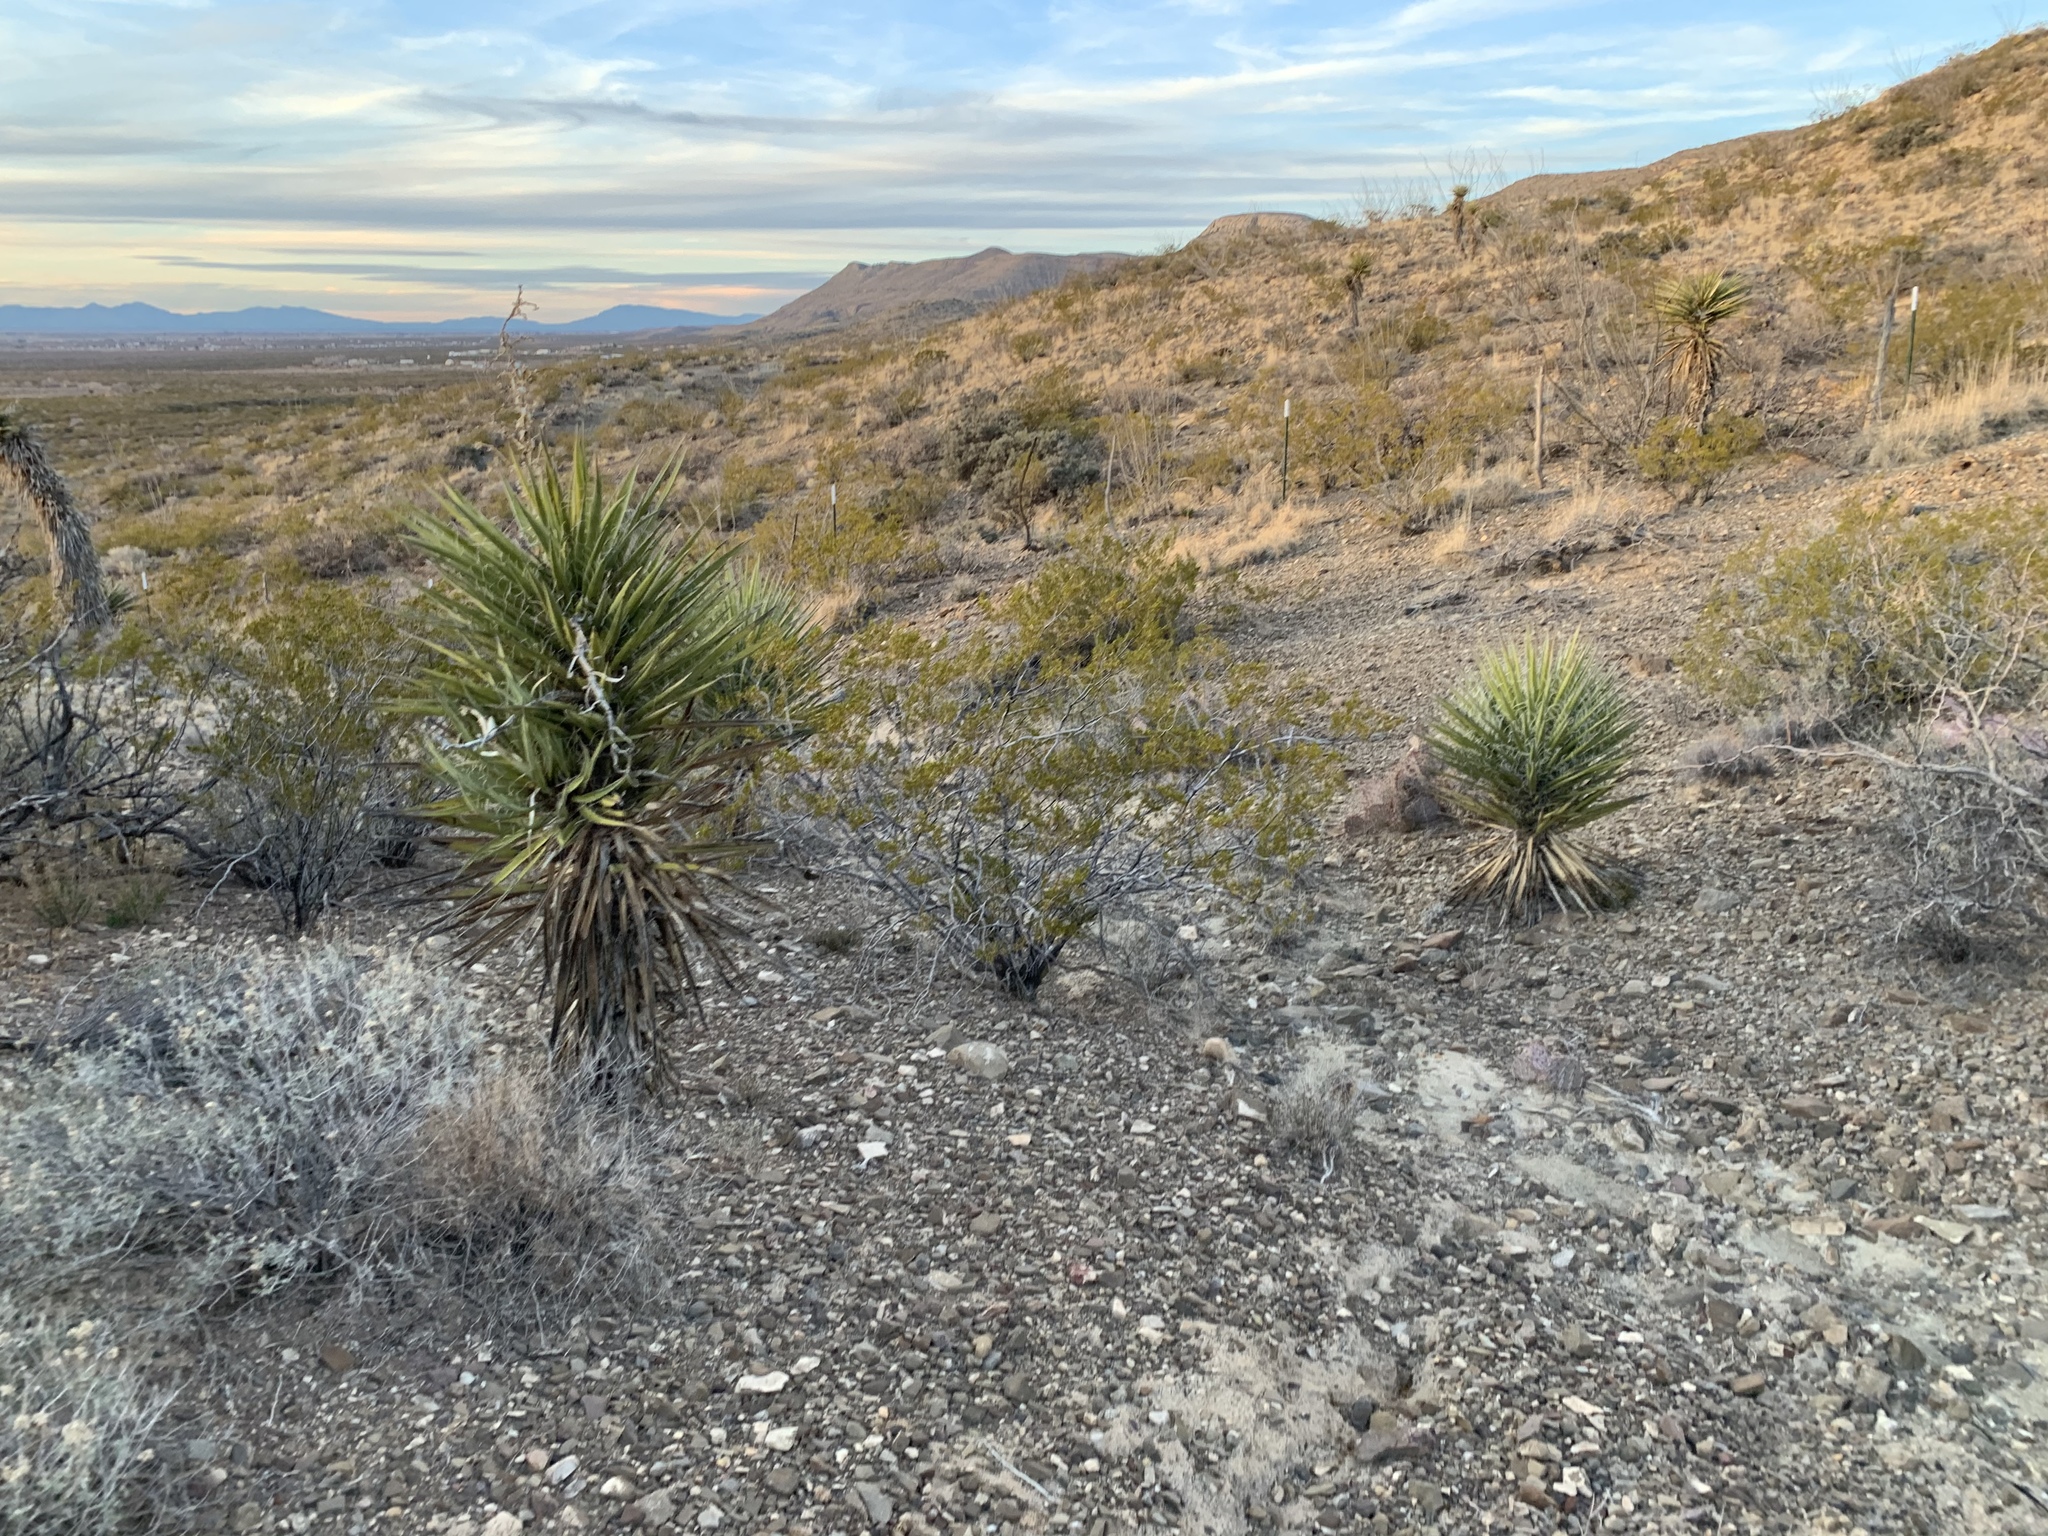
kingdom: Plantae
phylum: Tracheophyta
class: Liliopsida
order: Asparagales
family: Asparagaceae
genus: Yucca
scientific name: Yucca treculiana
